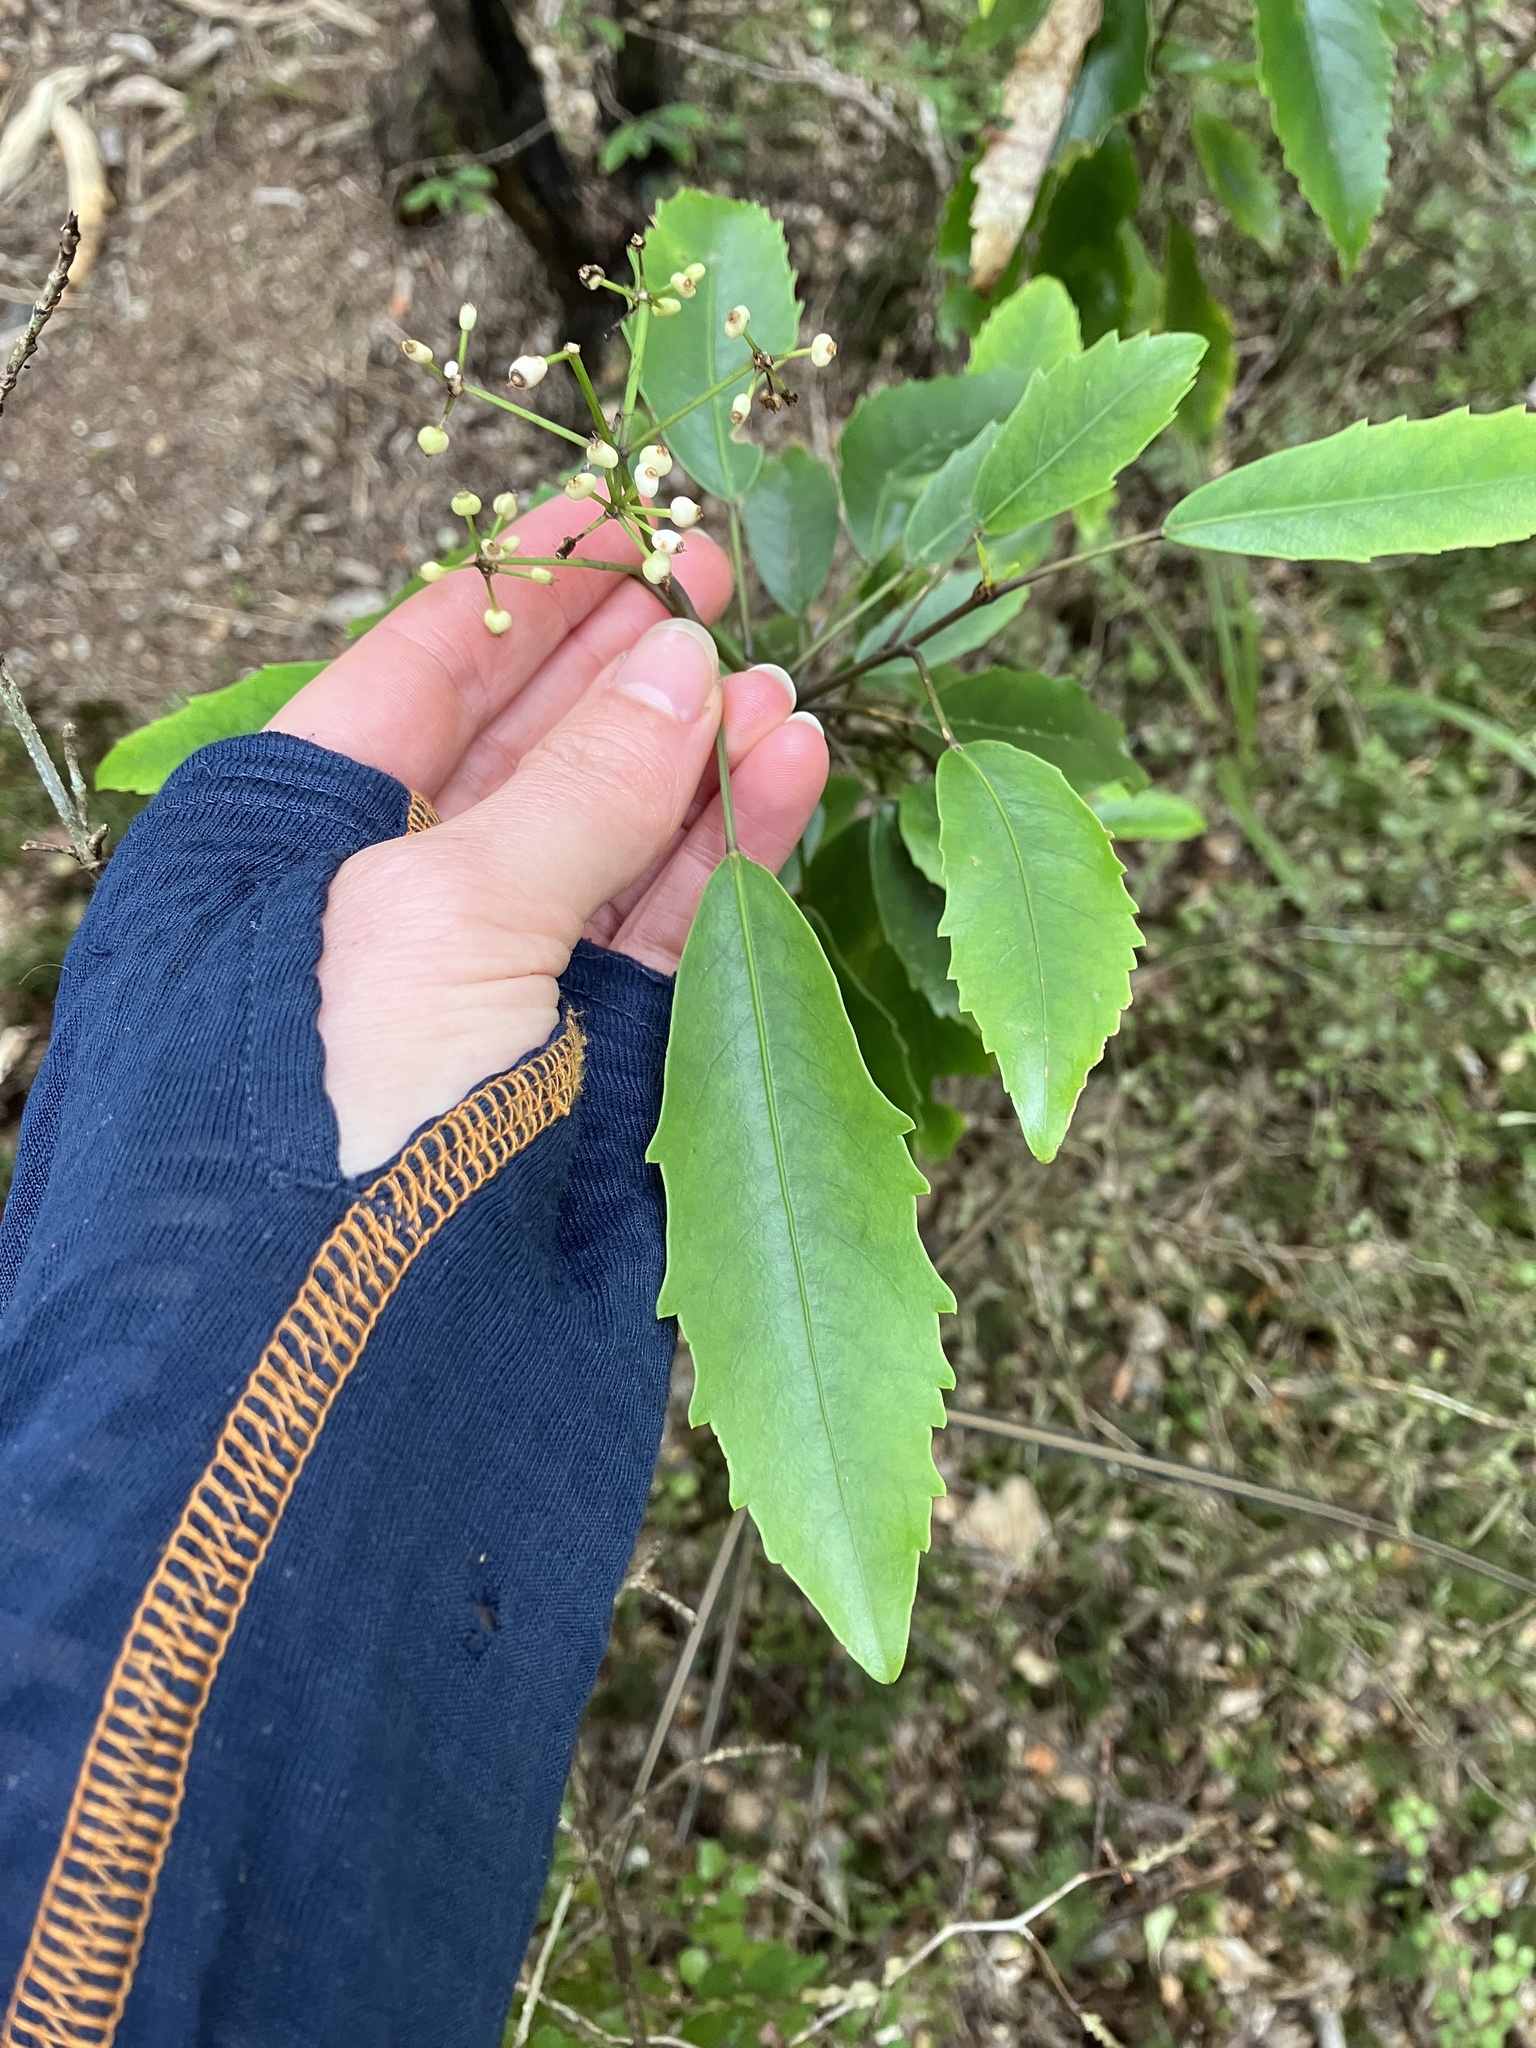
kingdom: Plantae
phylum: Tracheophyta
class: Magnoliopsida
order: Apiales
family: Araliaceae
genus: Raukaua
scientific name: Raukaua simplex
